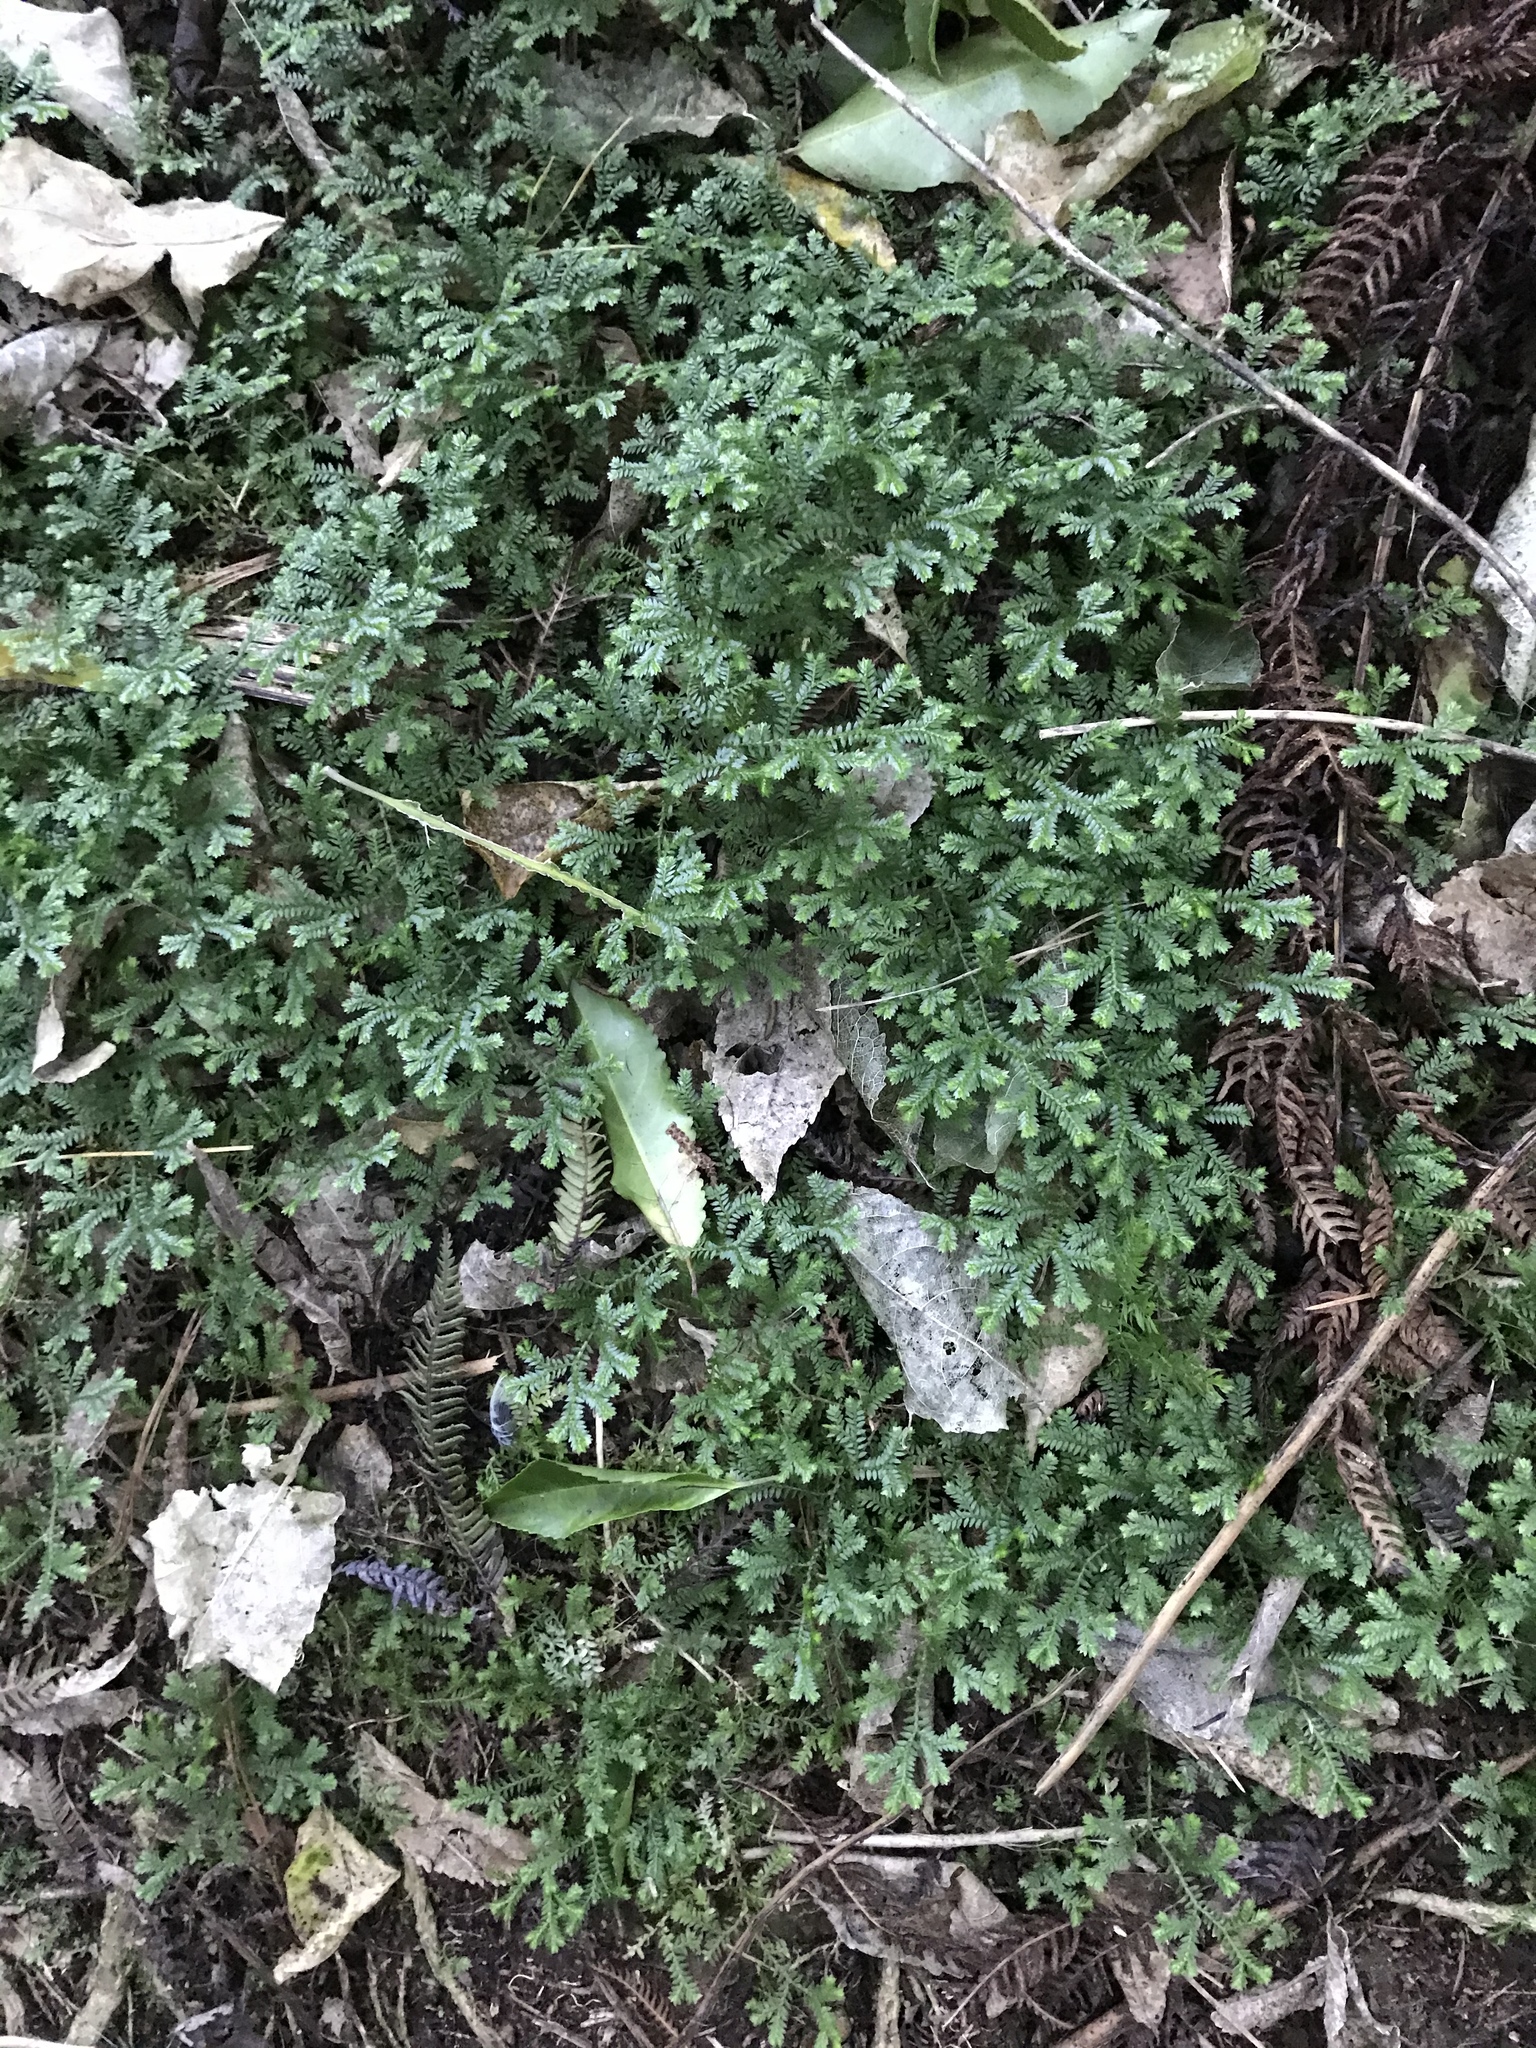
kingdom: Plantae
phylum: Tracheophyta
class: Lycopodiopsida
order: Selaginellales
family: Selaginellaceae
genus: Selaginella
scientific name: Selaginella kraussiana
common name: Krauss' spikemoss
